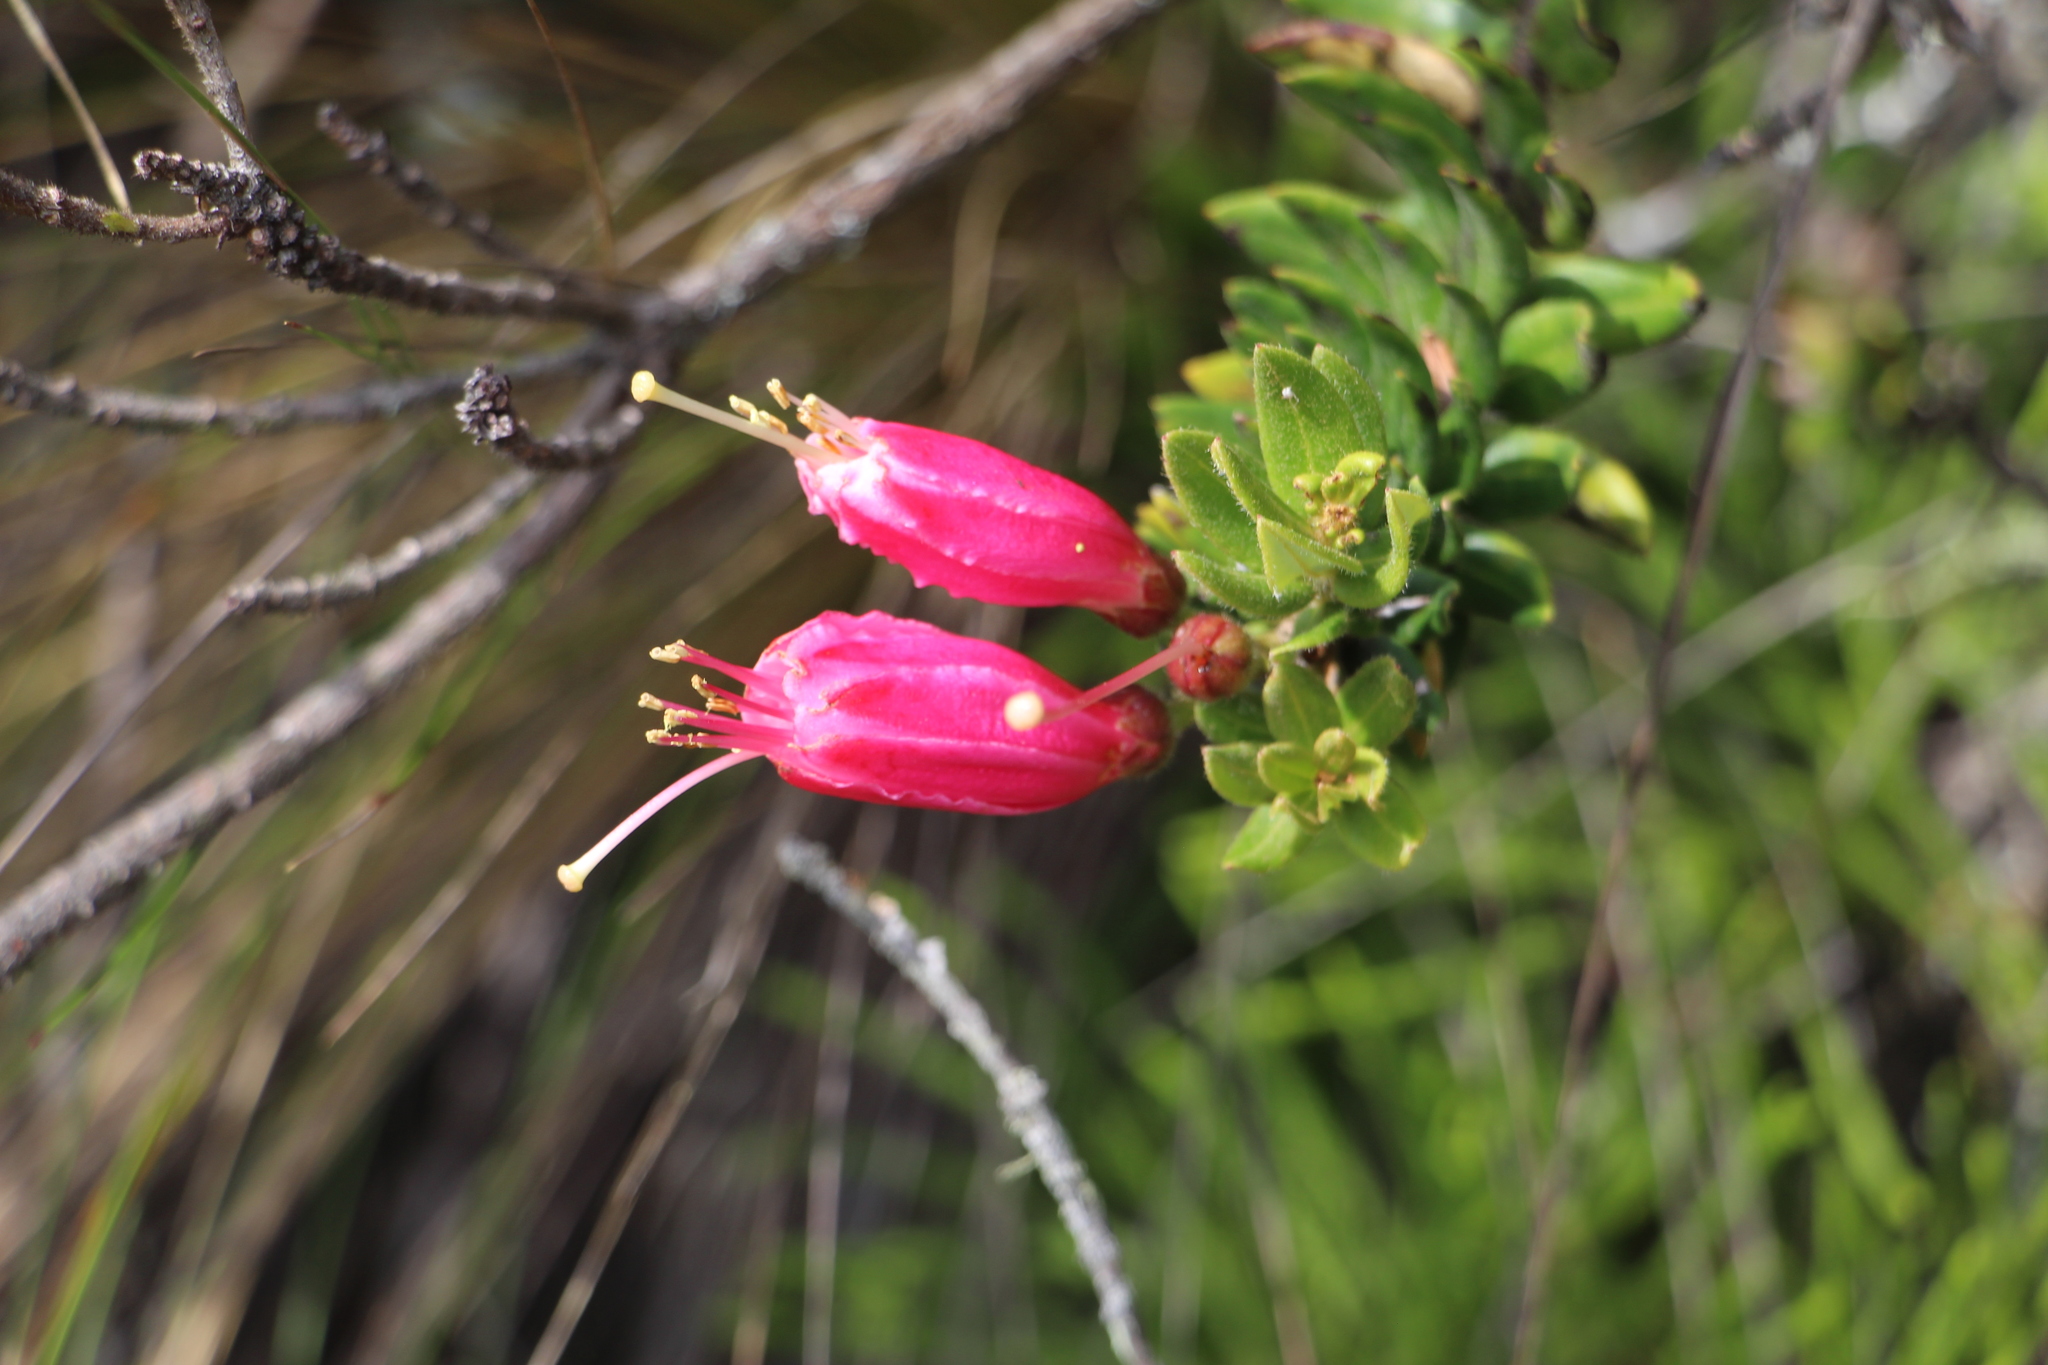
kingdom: Plantae
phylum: Tracheophyta
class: Magnoliopsida
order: Ericales
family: Ericaceae
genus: Bejaria
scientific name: Bejaria resinosa
